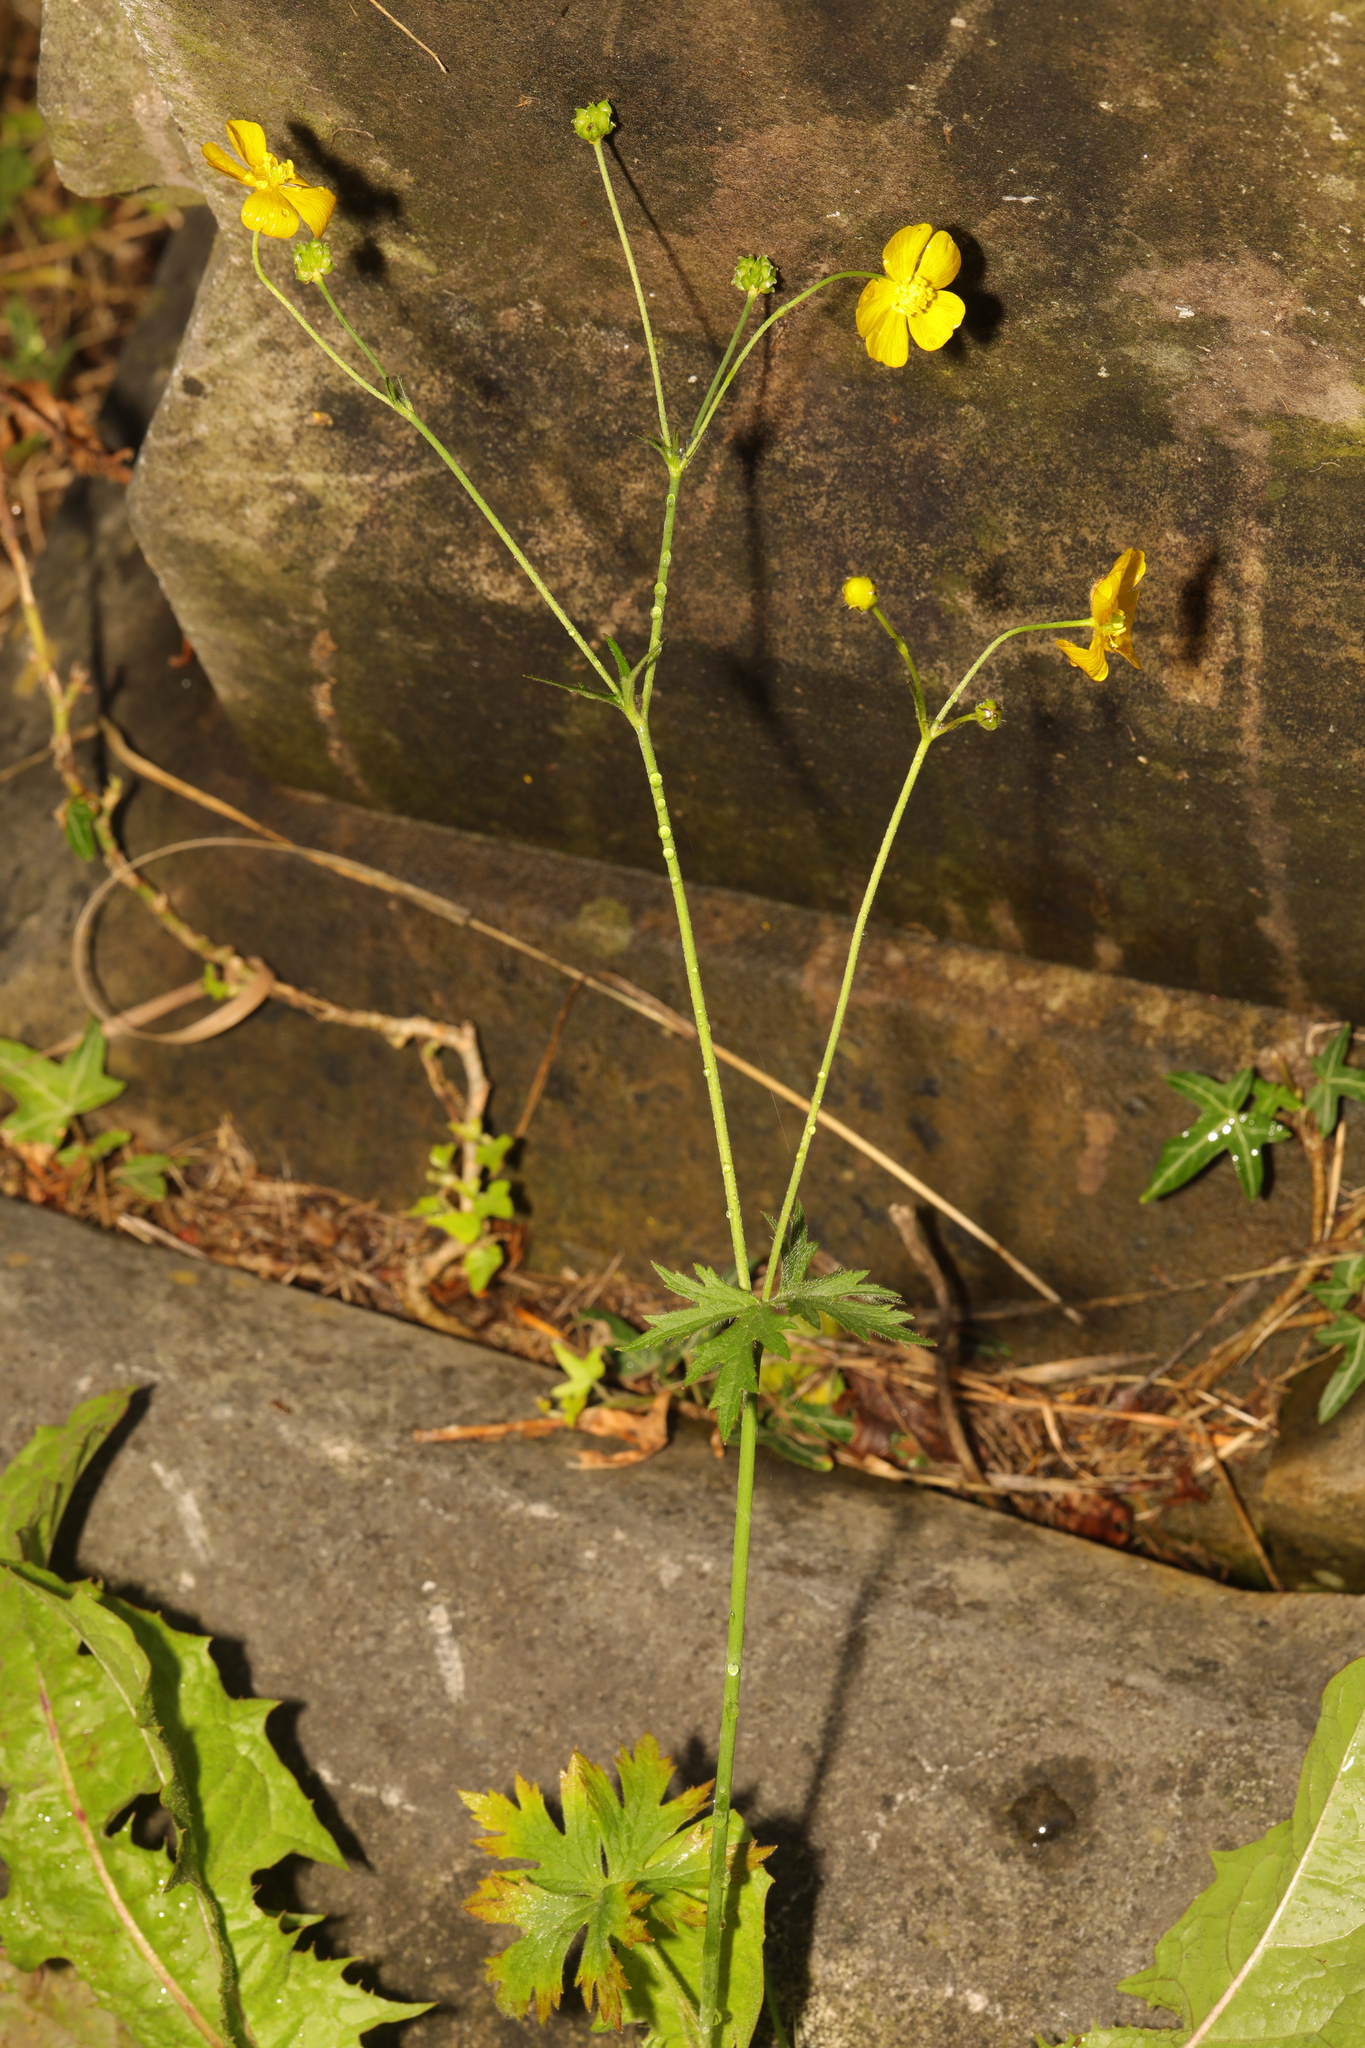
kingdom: Plantae
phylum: Tracheophyta
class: Magnoliopsida
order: Ranunculales
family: Ranunculaceae
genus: Ranunculus
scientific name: Ranunculus acris
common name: Meadow buttercup
